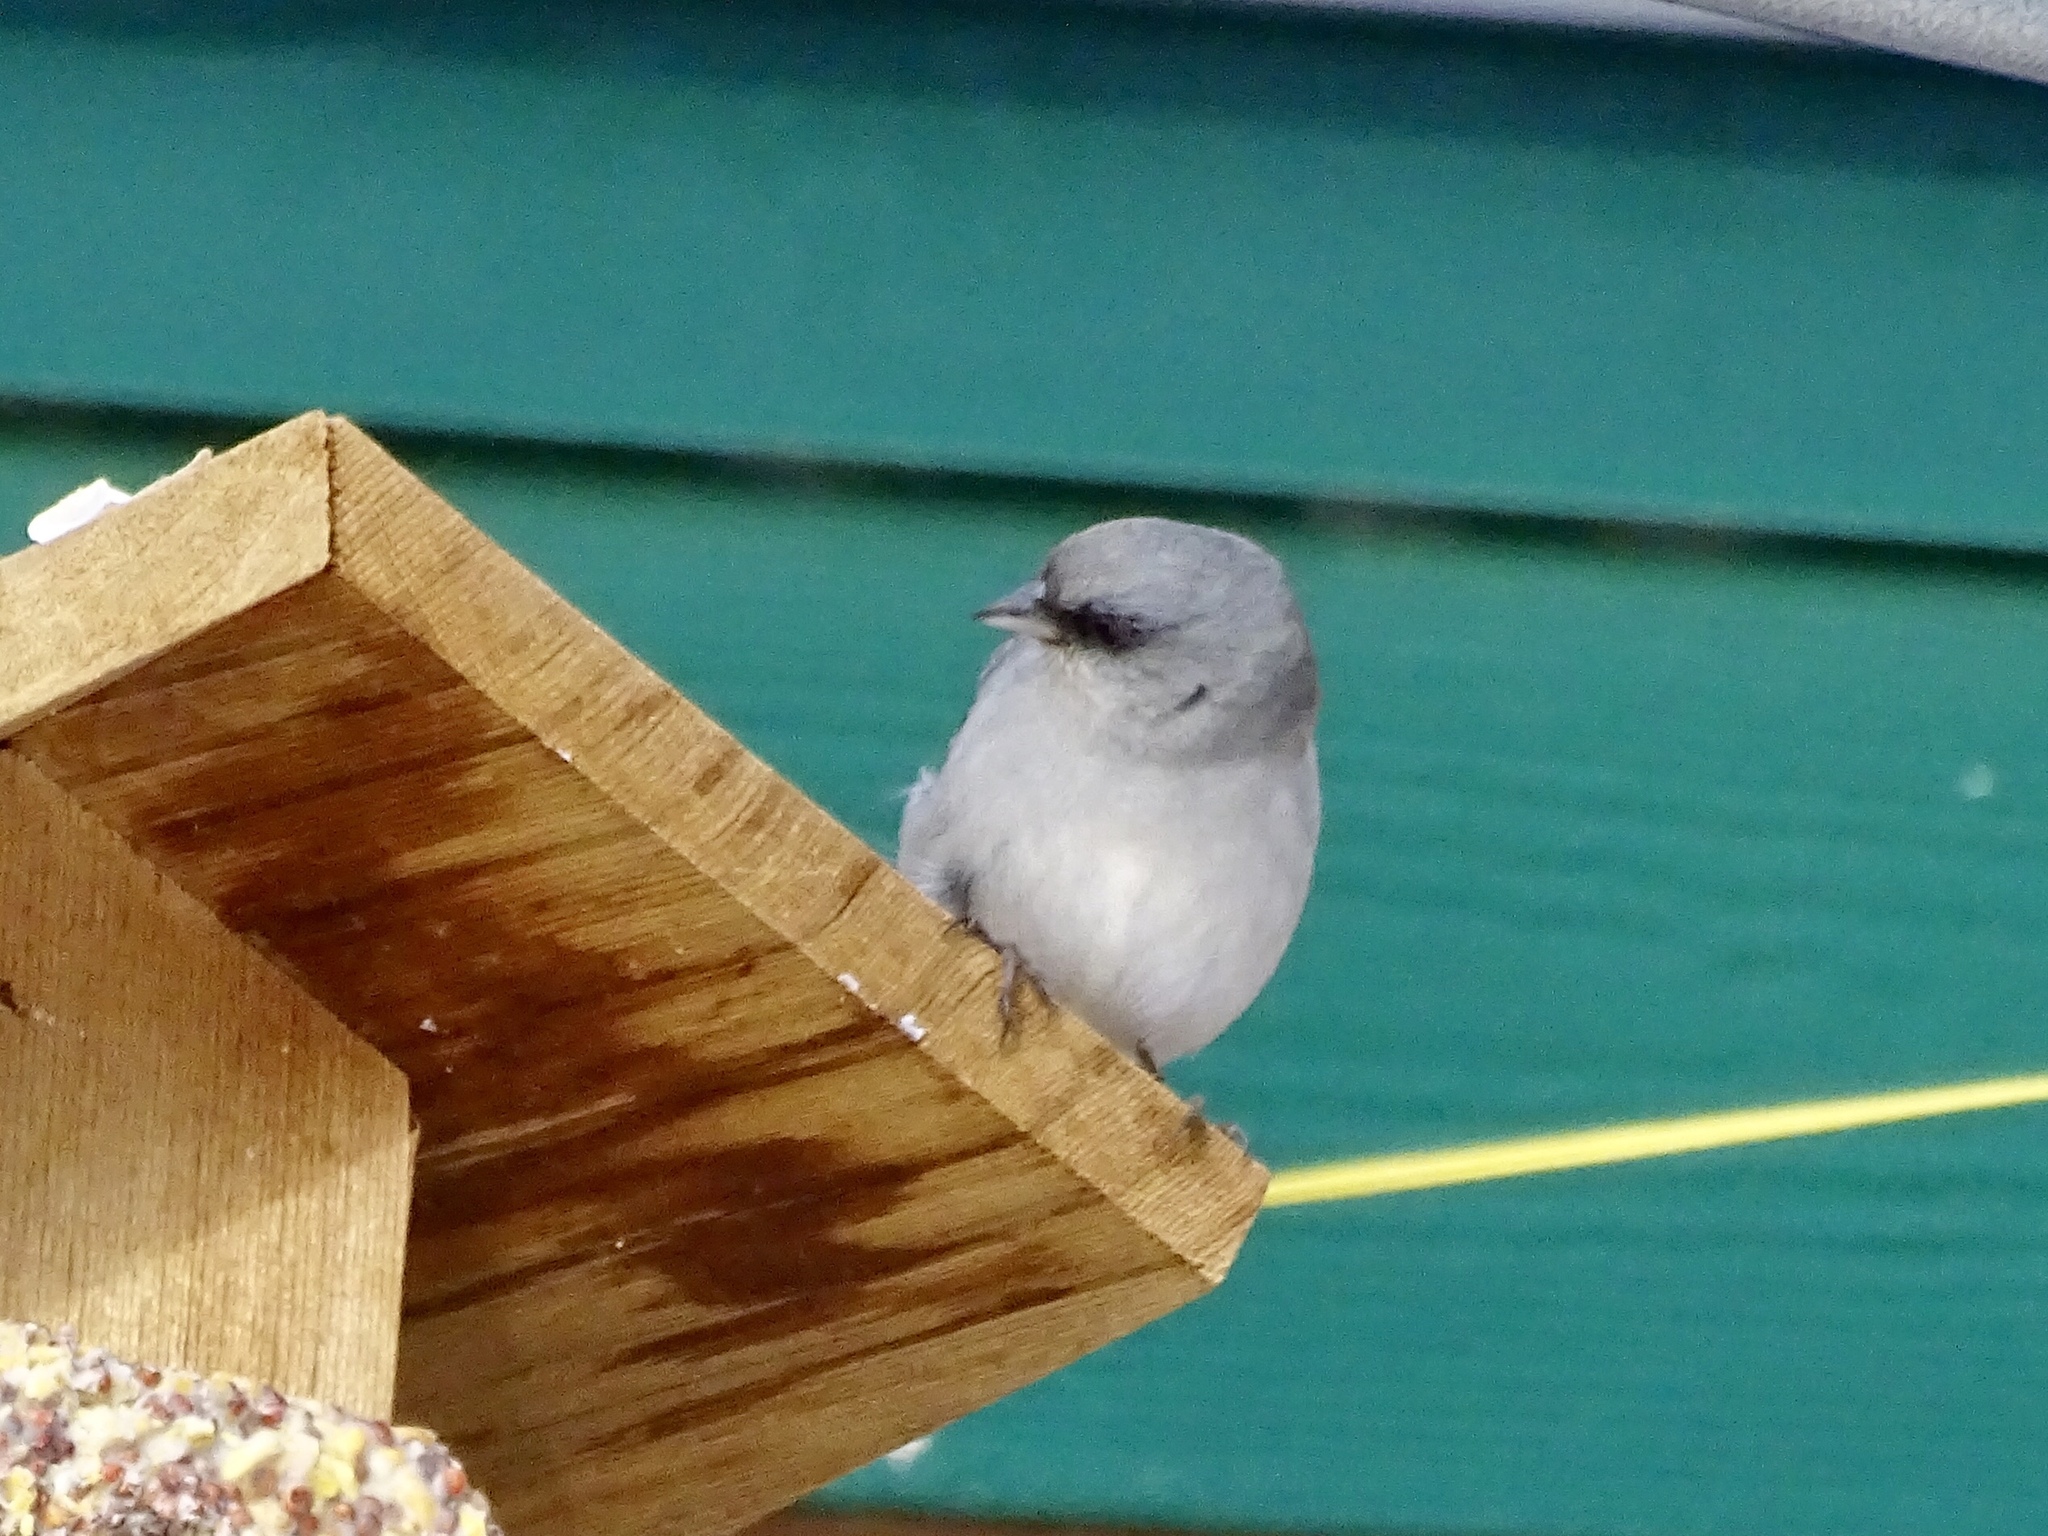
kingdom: Animalia
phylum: Chordata
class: Aves
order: Passeriformes
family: Passerellidae
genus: Junco
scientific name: Junco hyemalis
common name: Dark-eyed junco
